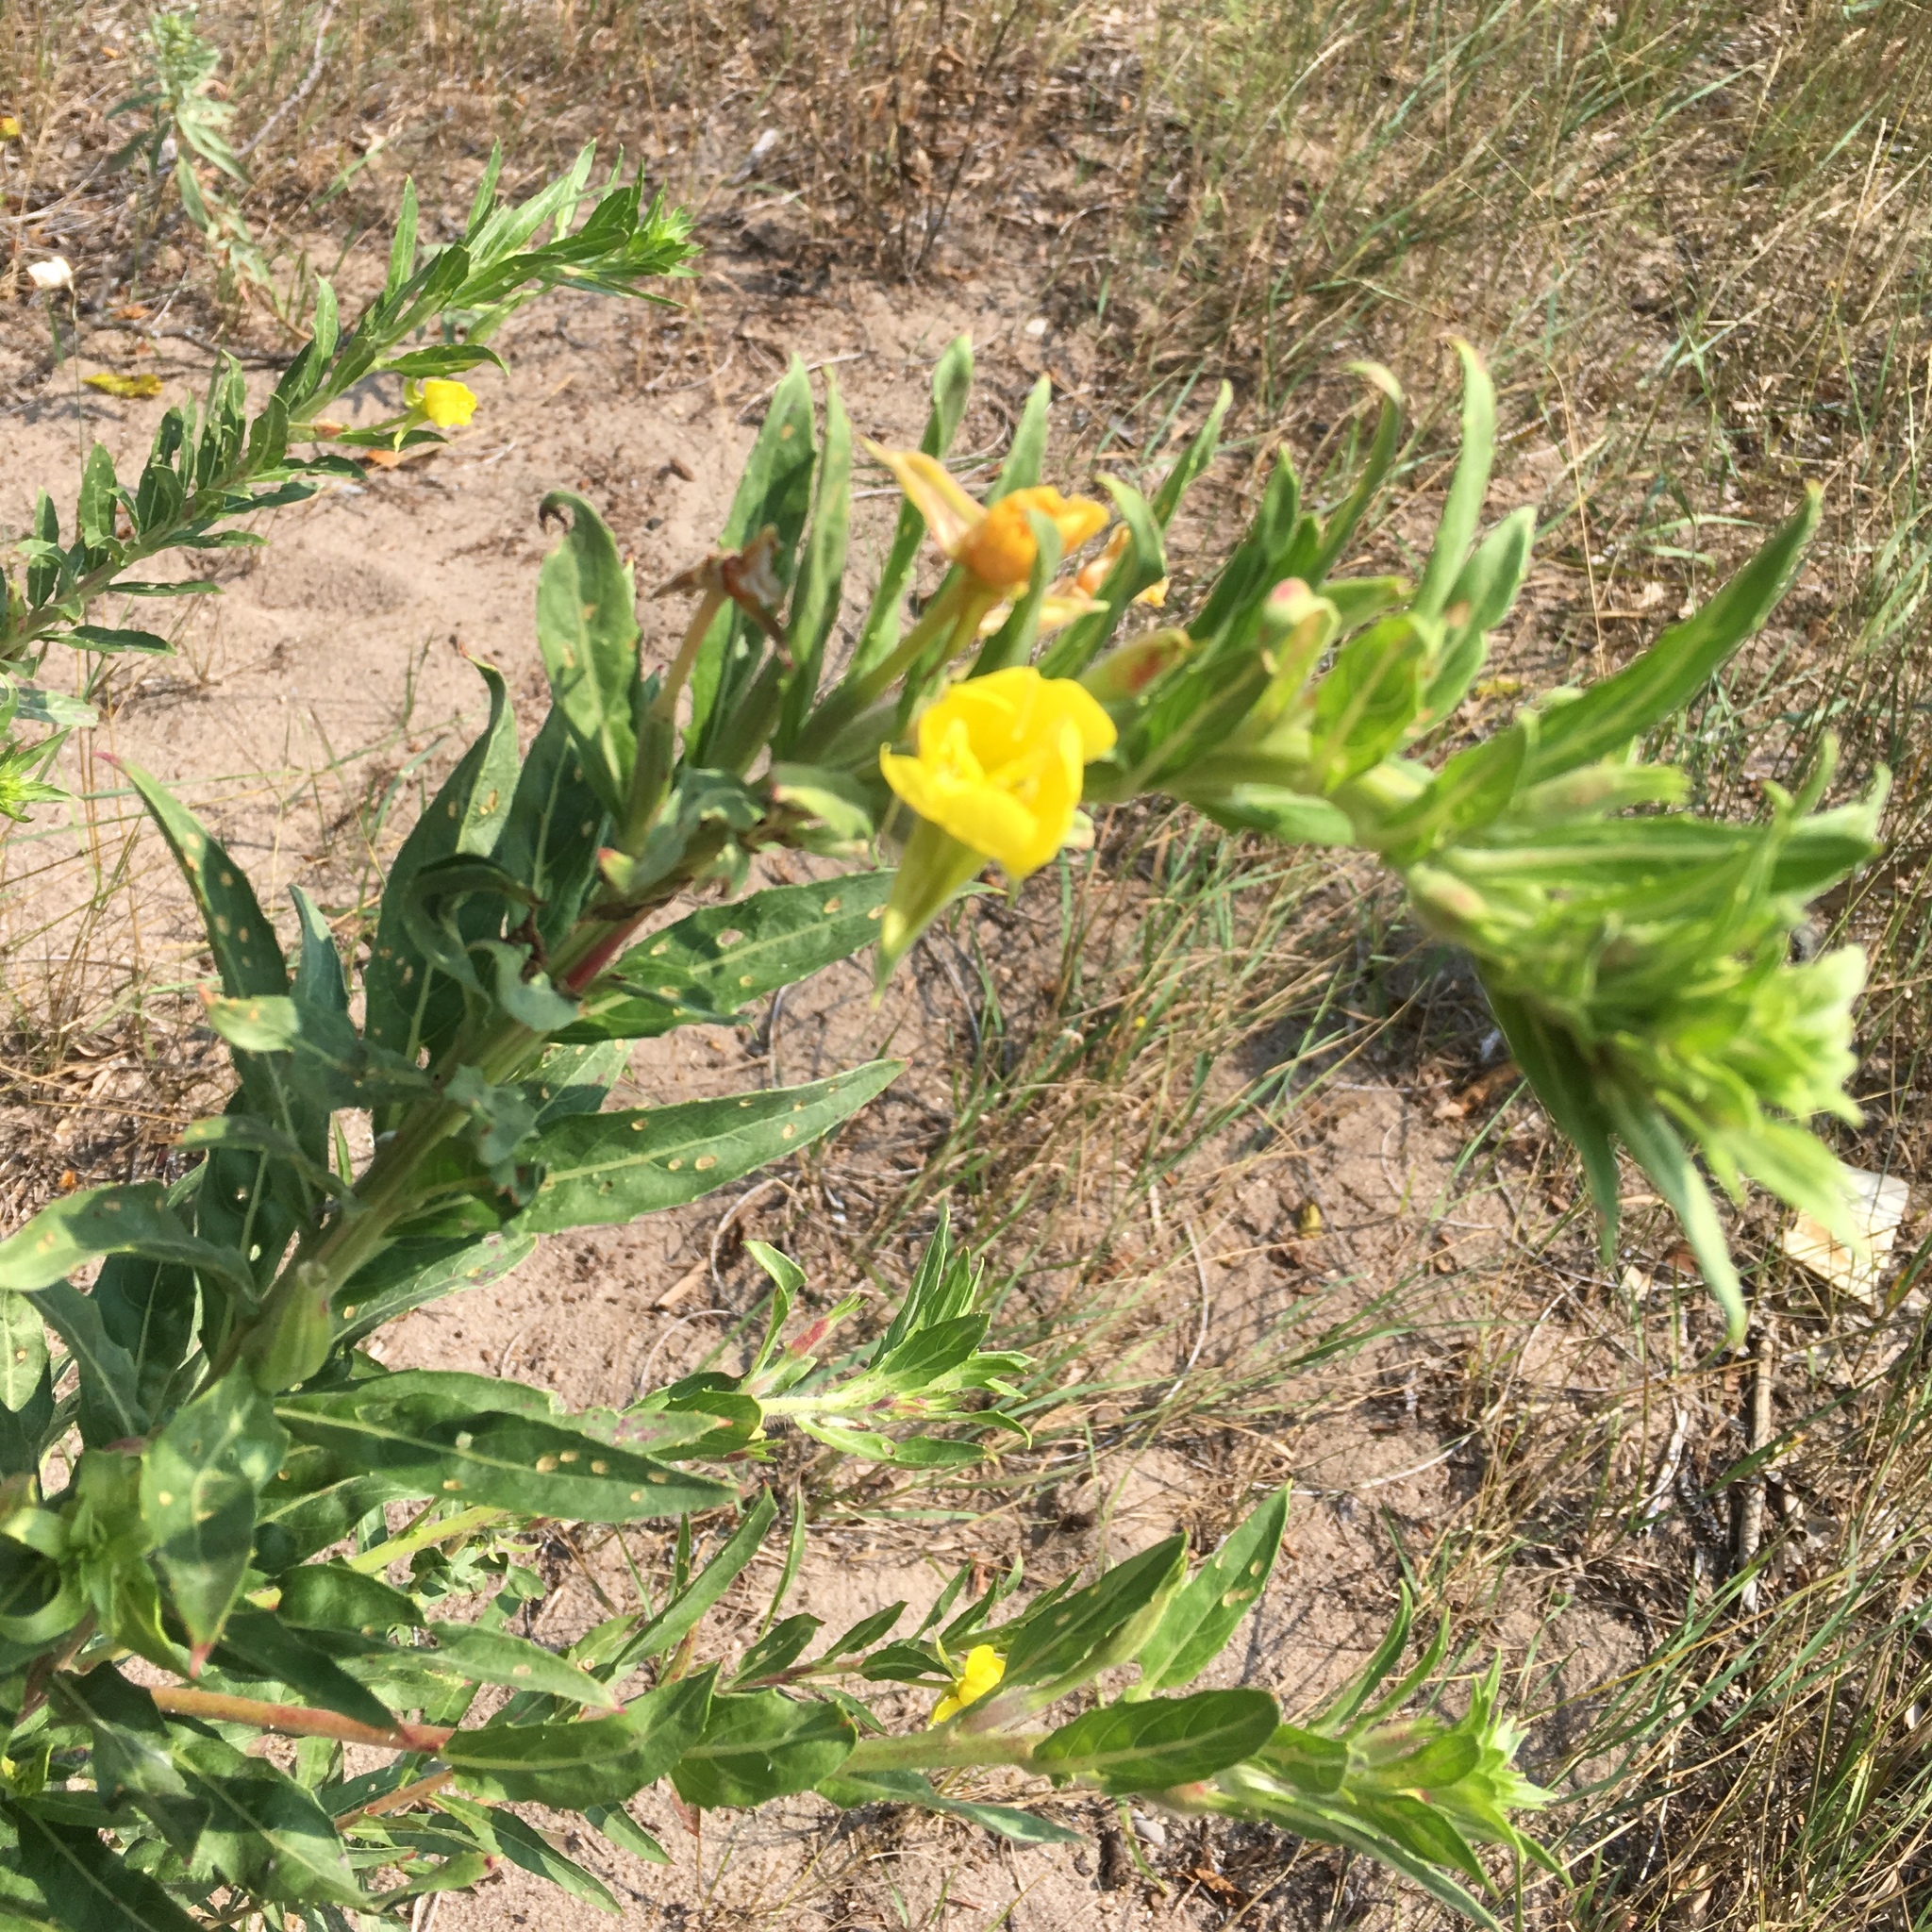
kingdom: Plantae
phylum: Tracheophyta
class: Magnoliopsida
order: Myrtales
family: Onagraceae
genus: Oenothera
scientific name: Oenothera biennis
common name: Common evening-primrose
